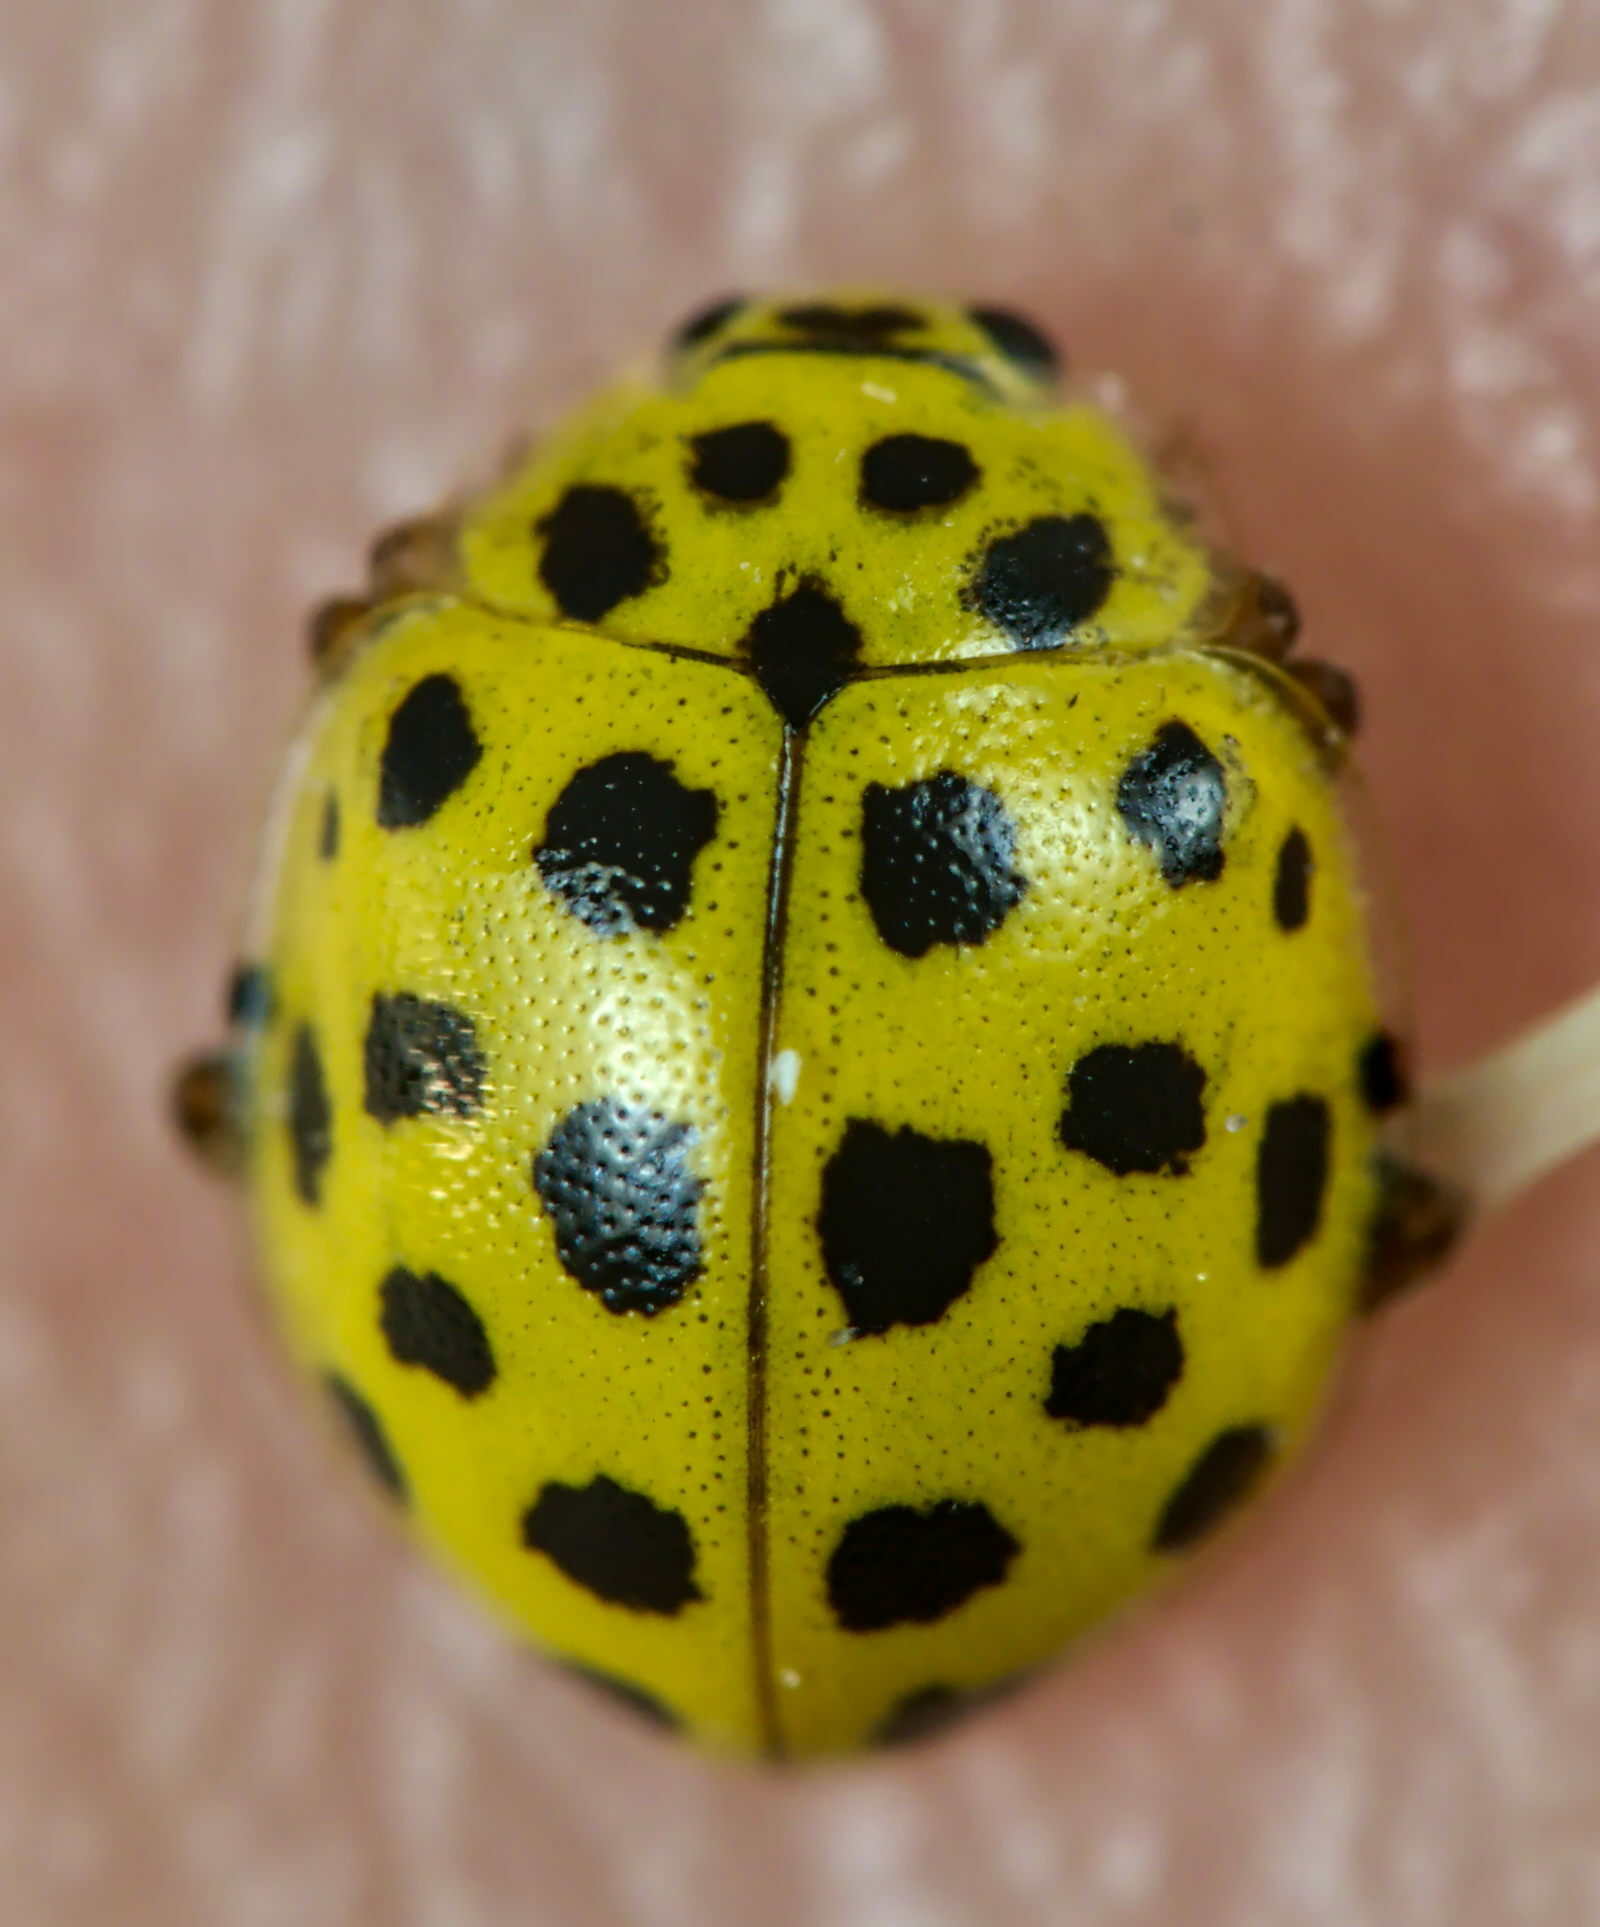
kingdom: Animalia
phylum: Arthropoda
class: Insecta
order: Coleoptera
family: Coccinellidae
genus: Psyllobora
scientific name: Psyllobora vigintiduopunctata
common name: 22-spot ladybird
